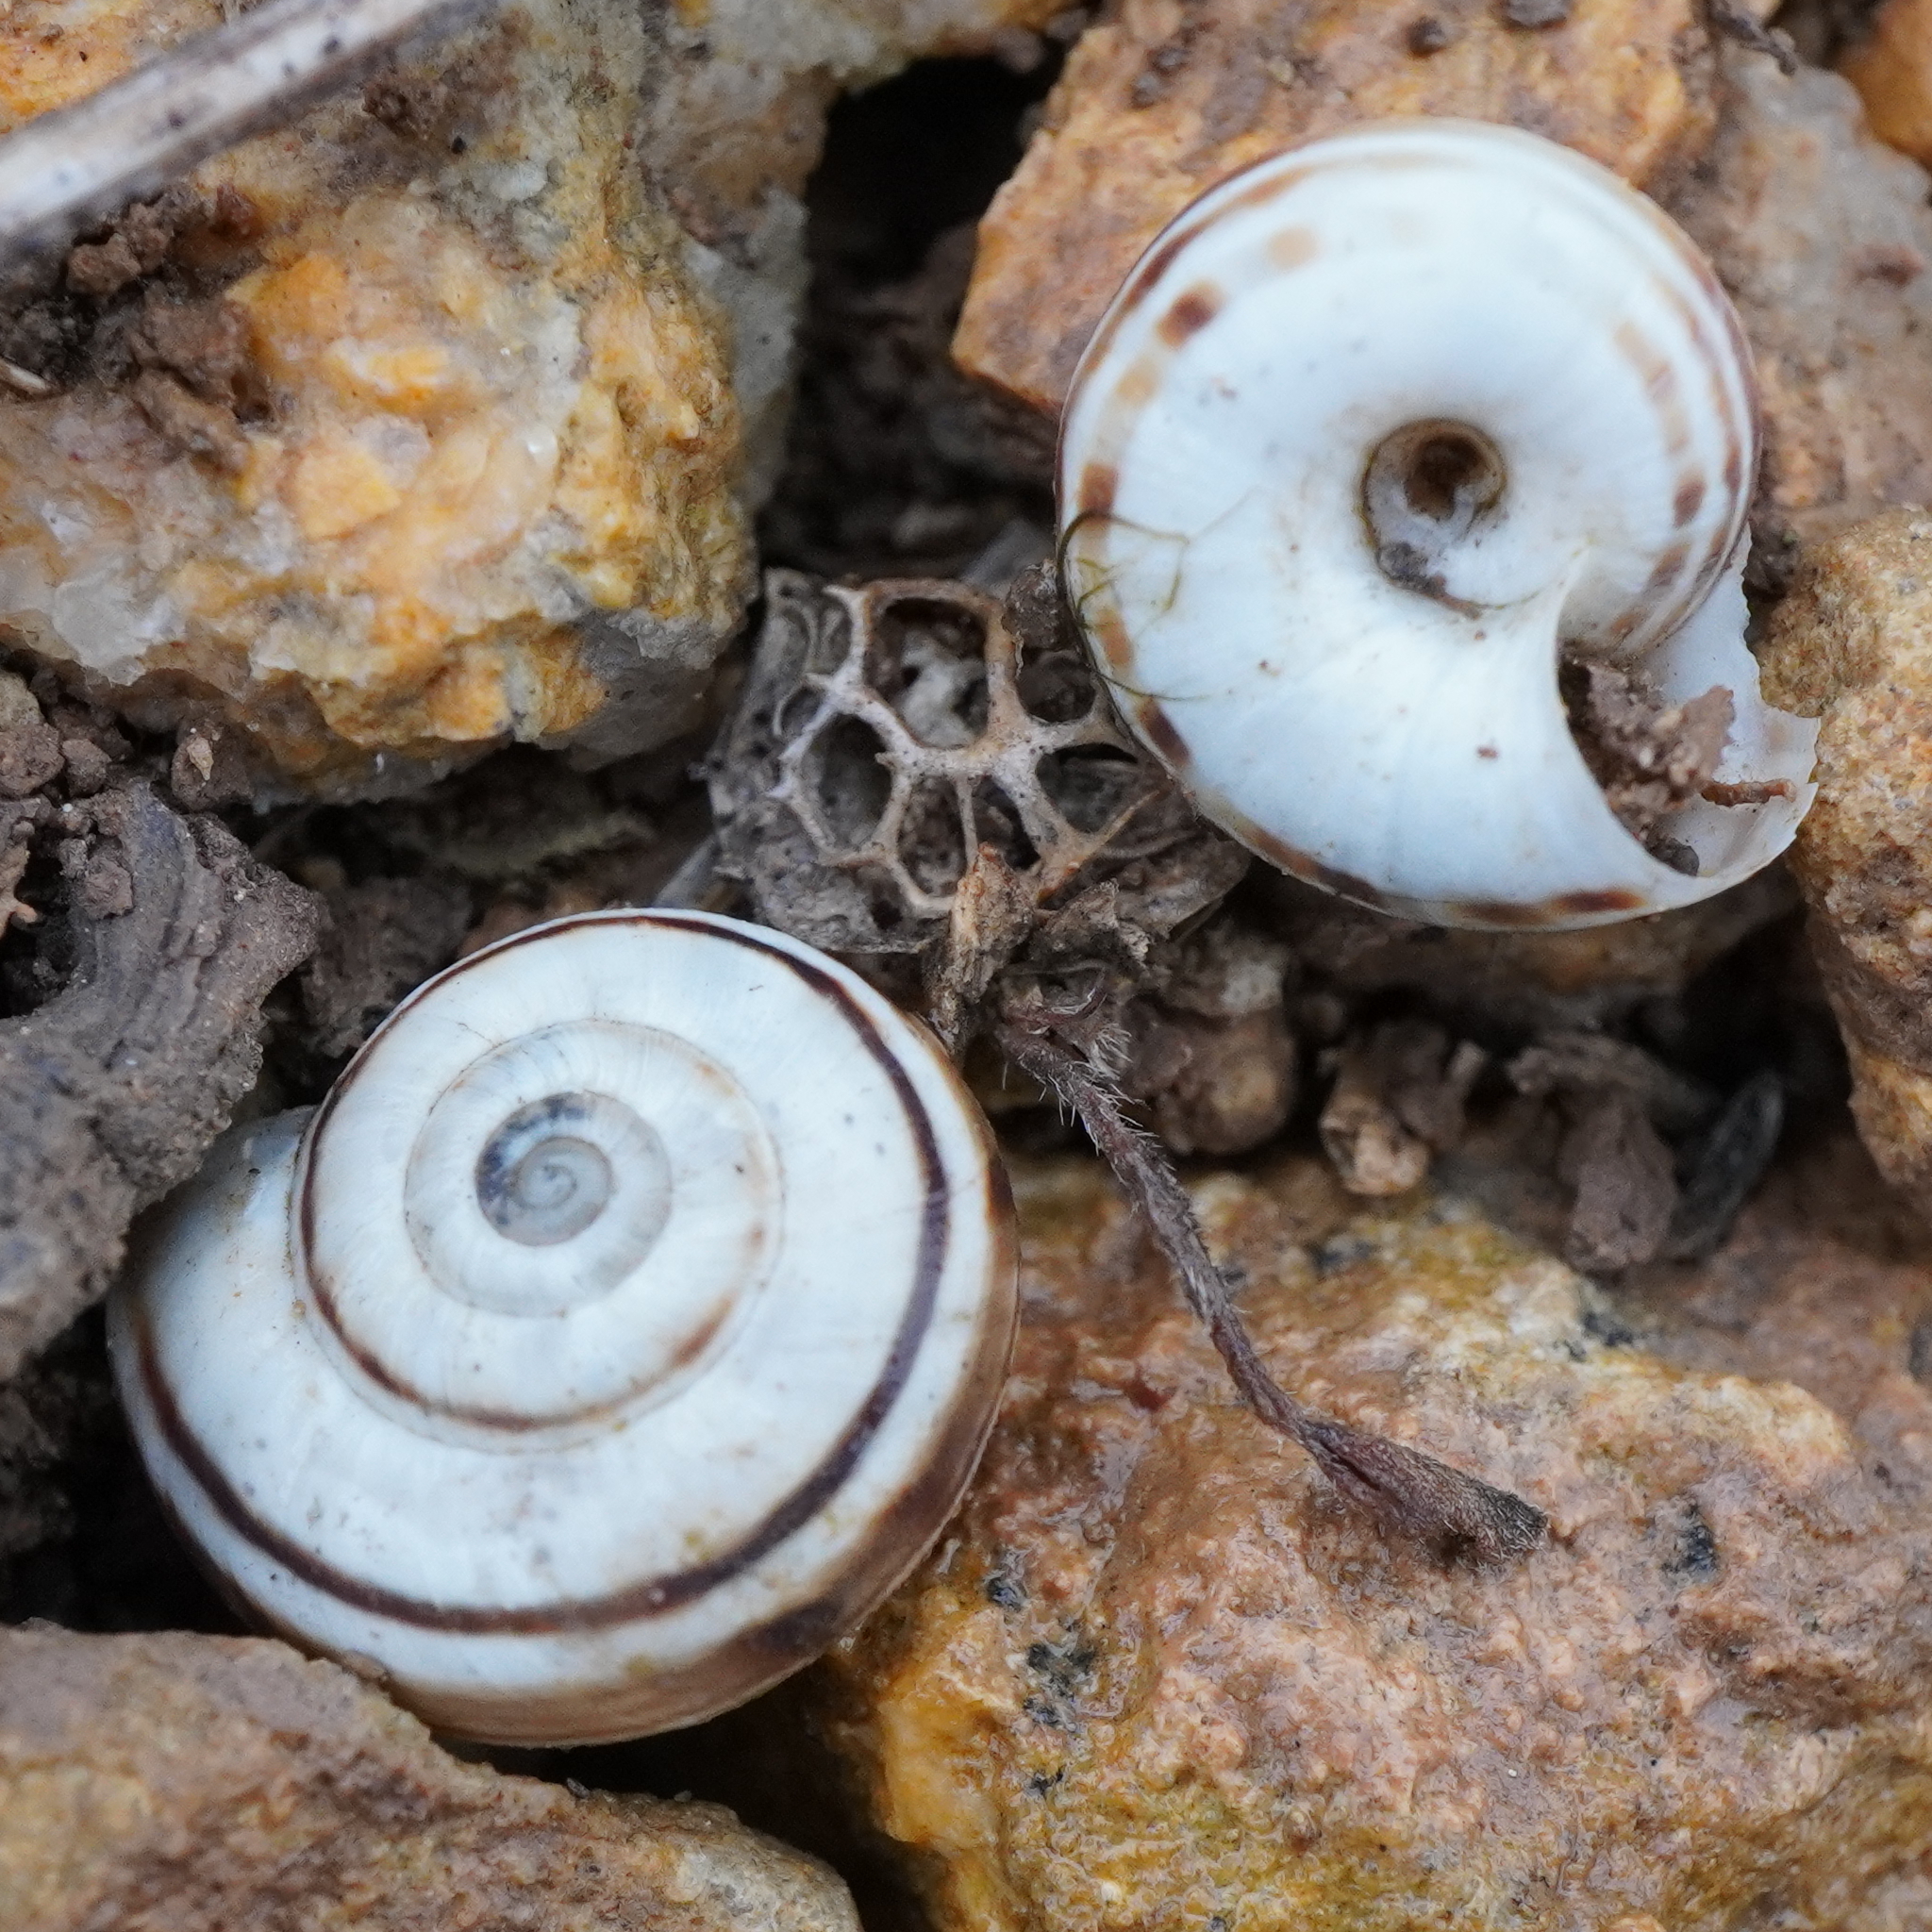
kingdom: Animalia
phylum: Mollusca
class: Gastropoda
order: Stylommatophora
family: Geomitridae
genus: Xerolenta
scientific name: Xerolenta obvia
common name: White heath snail
